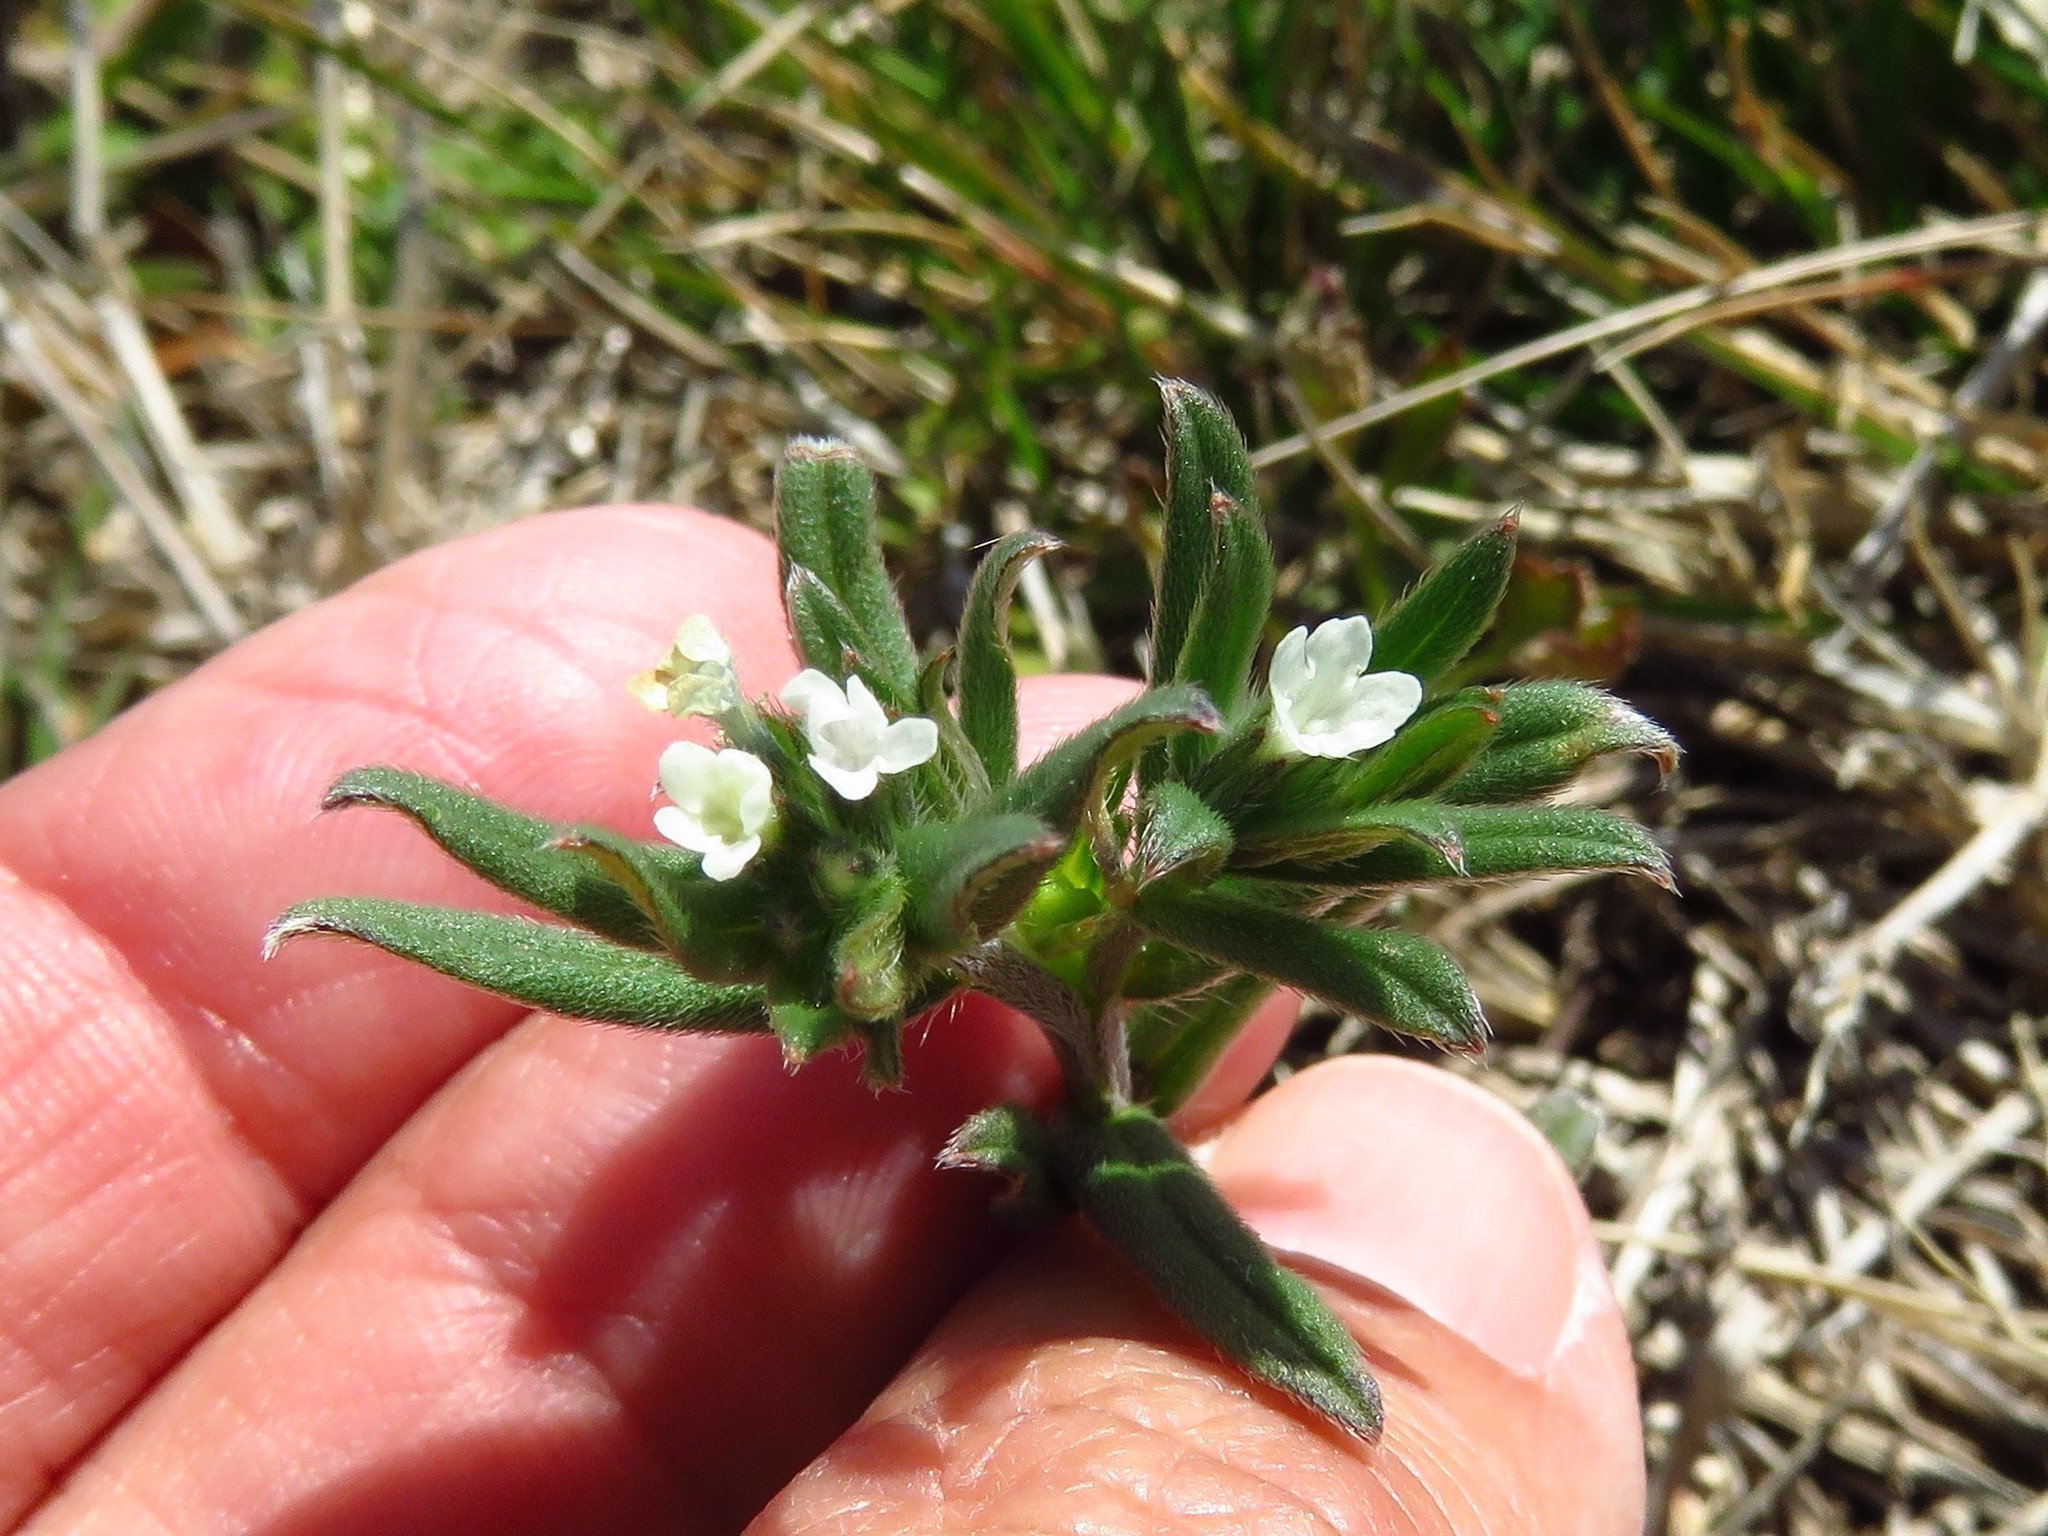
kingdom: Plantae
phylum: Tracheophyta
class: Magnoliopsida
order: Boraginales
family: Boraginaceae
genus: Buglossoides
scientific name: Buglossoides arvensis
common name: Corn gromwell
